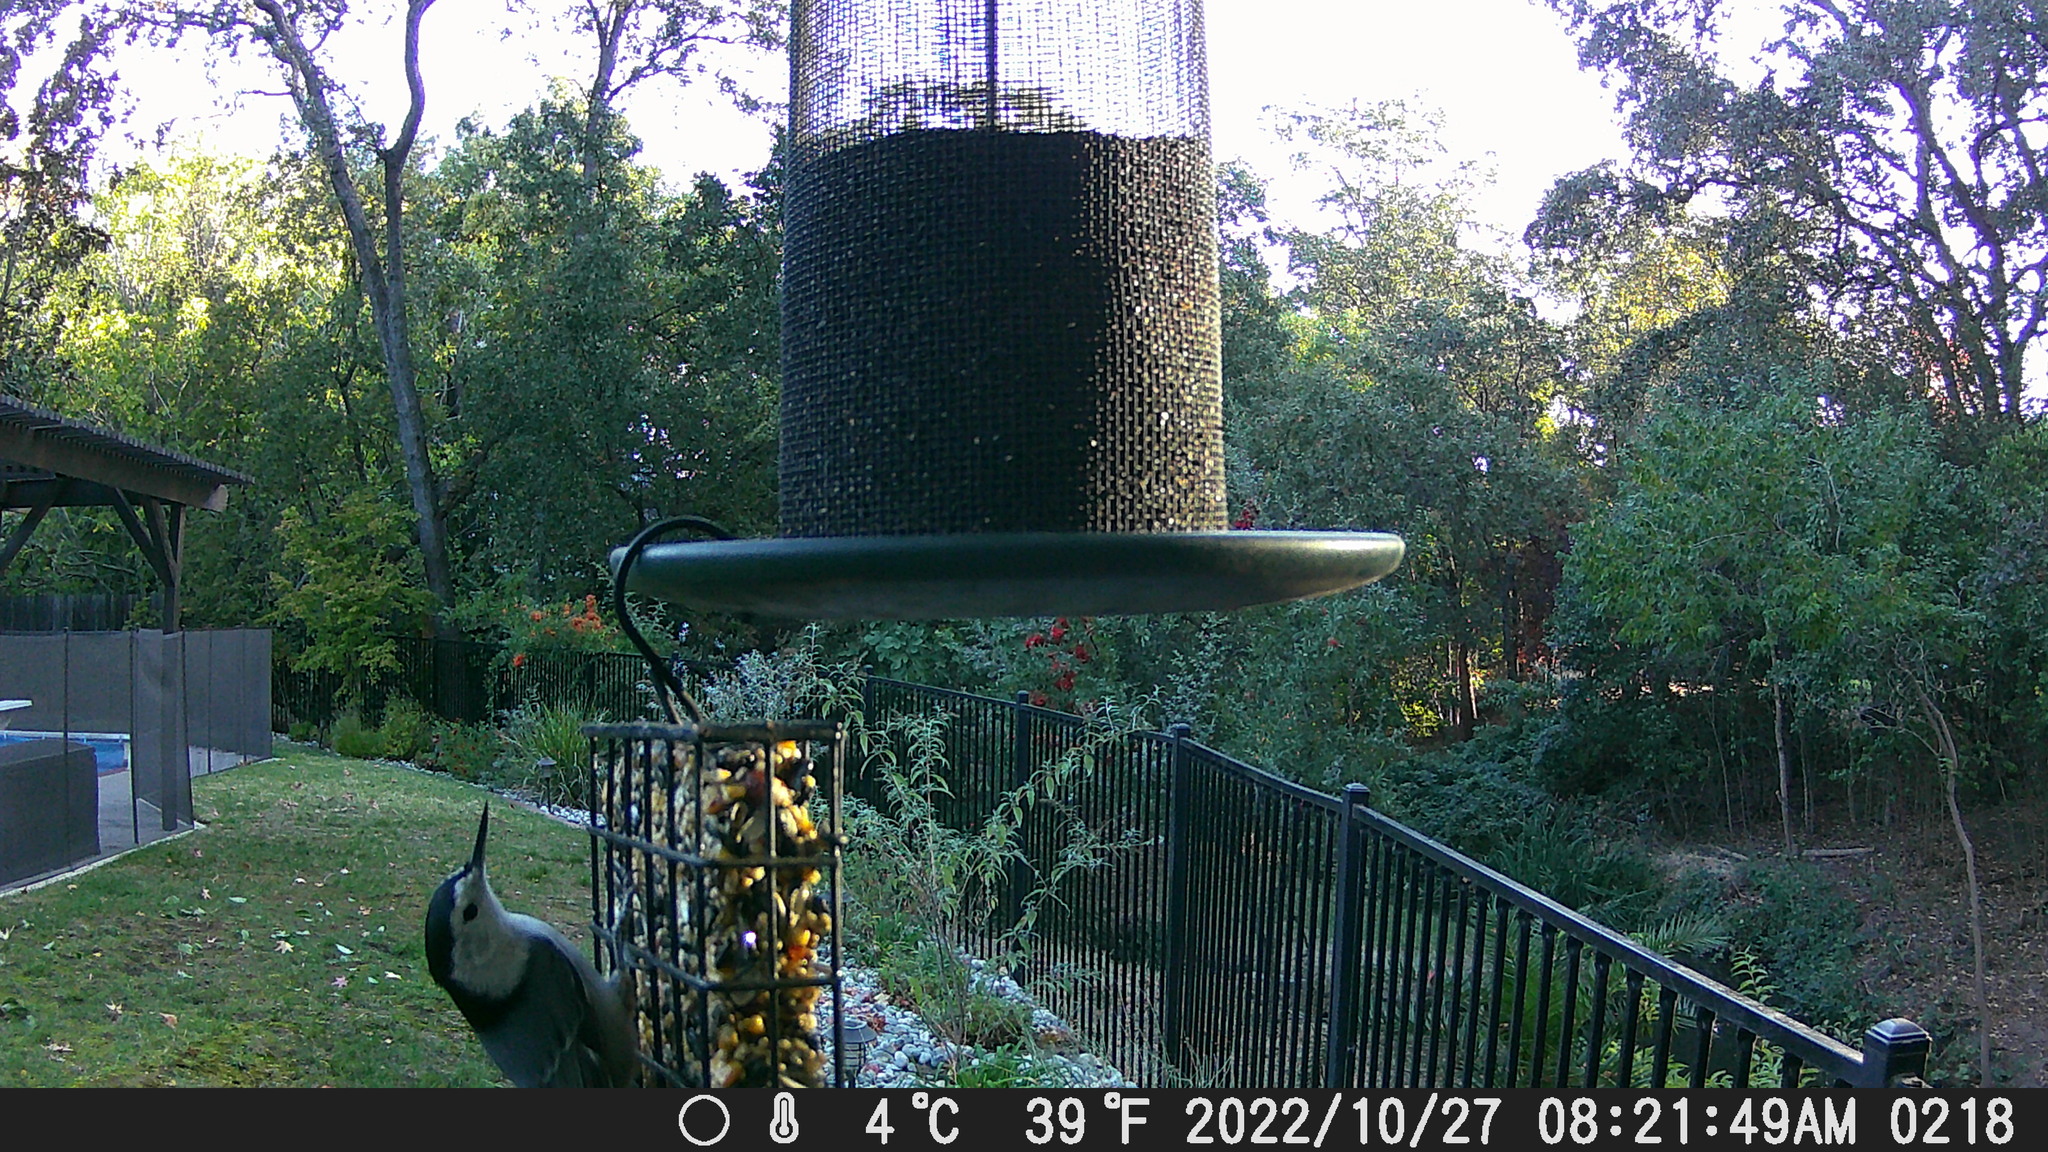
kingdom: Animalia
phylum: Chordata
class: Aves
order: Passeriformes
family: Sittidae
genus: Sitta
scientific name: Sitta carolinensis
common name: White-breasted nuthatch
